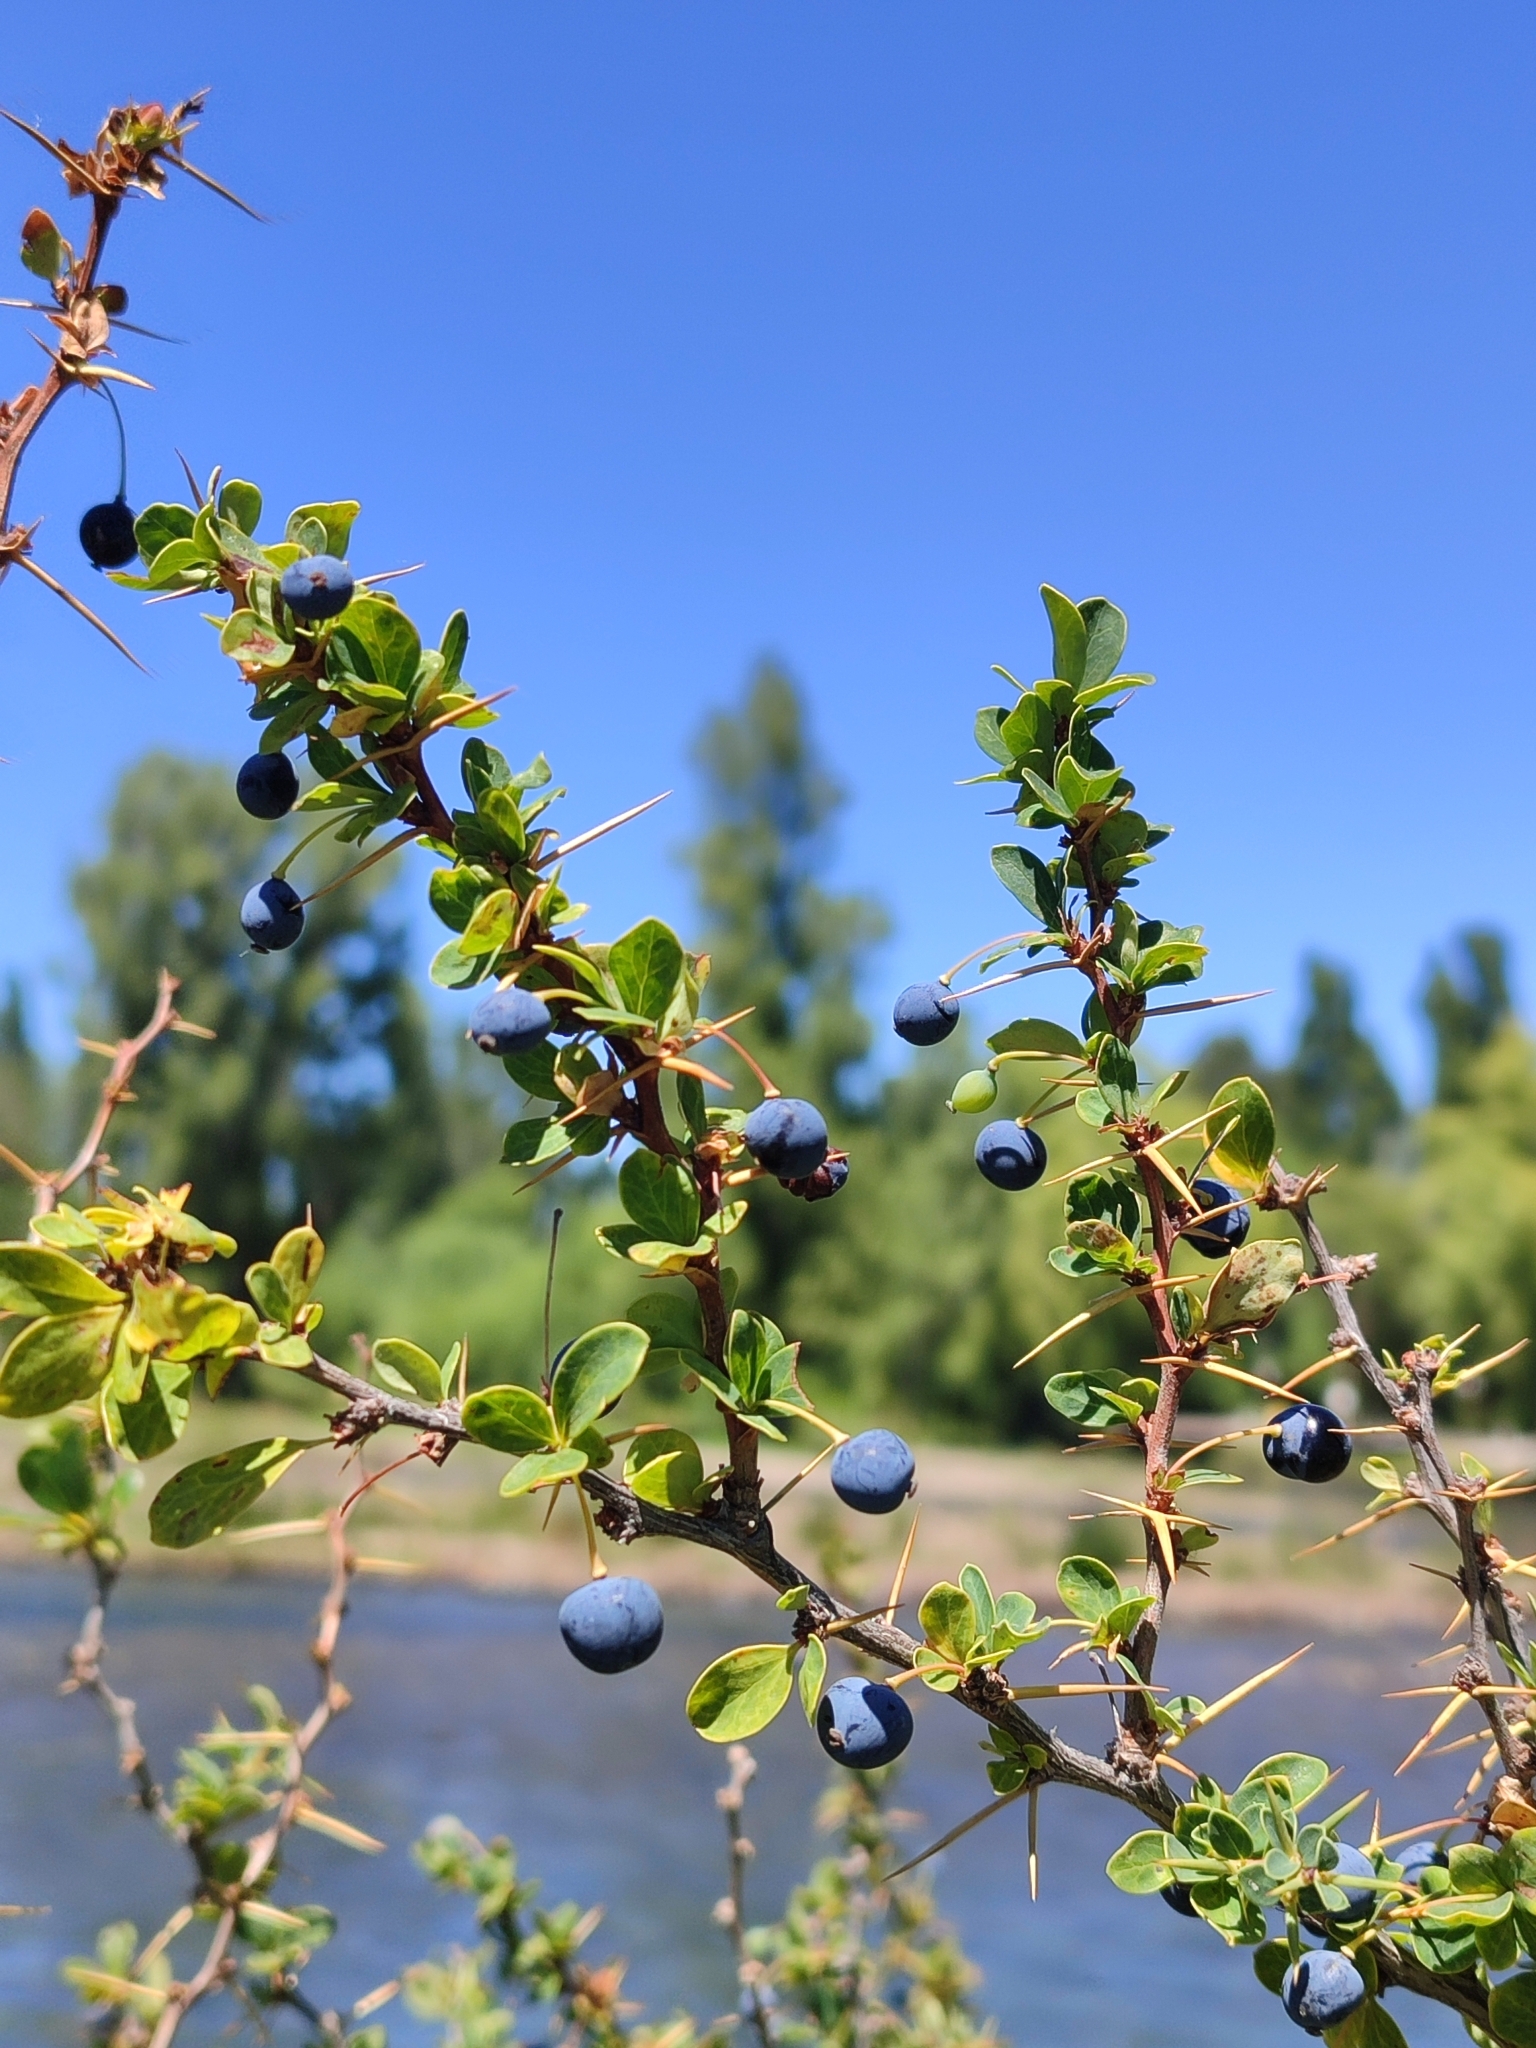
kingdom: Plantae
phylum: Tracheophyta
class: Magnoliopsida
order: Ranunculales
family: Berberidaceae
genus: Berberis
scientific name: Berberis microphylla
